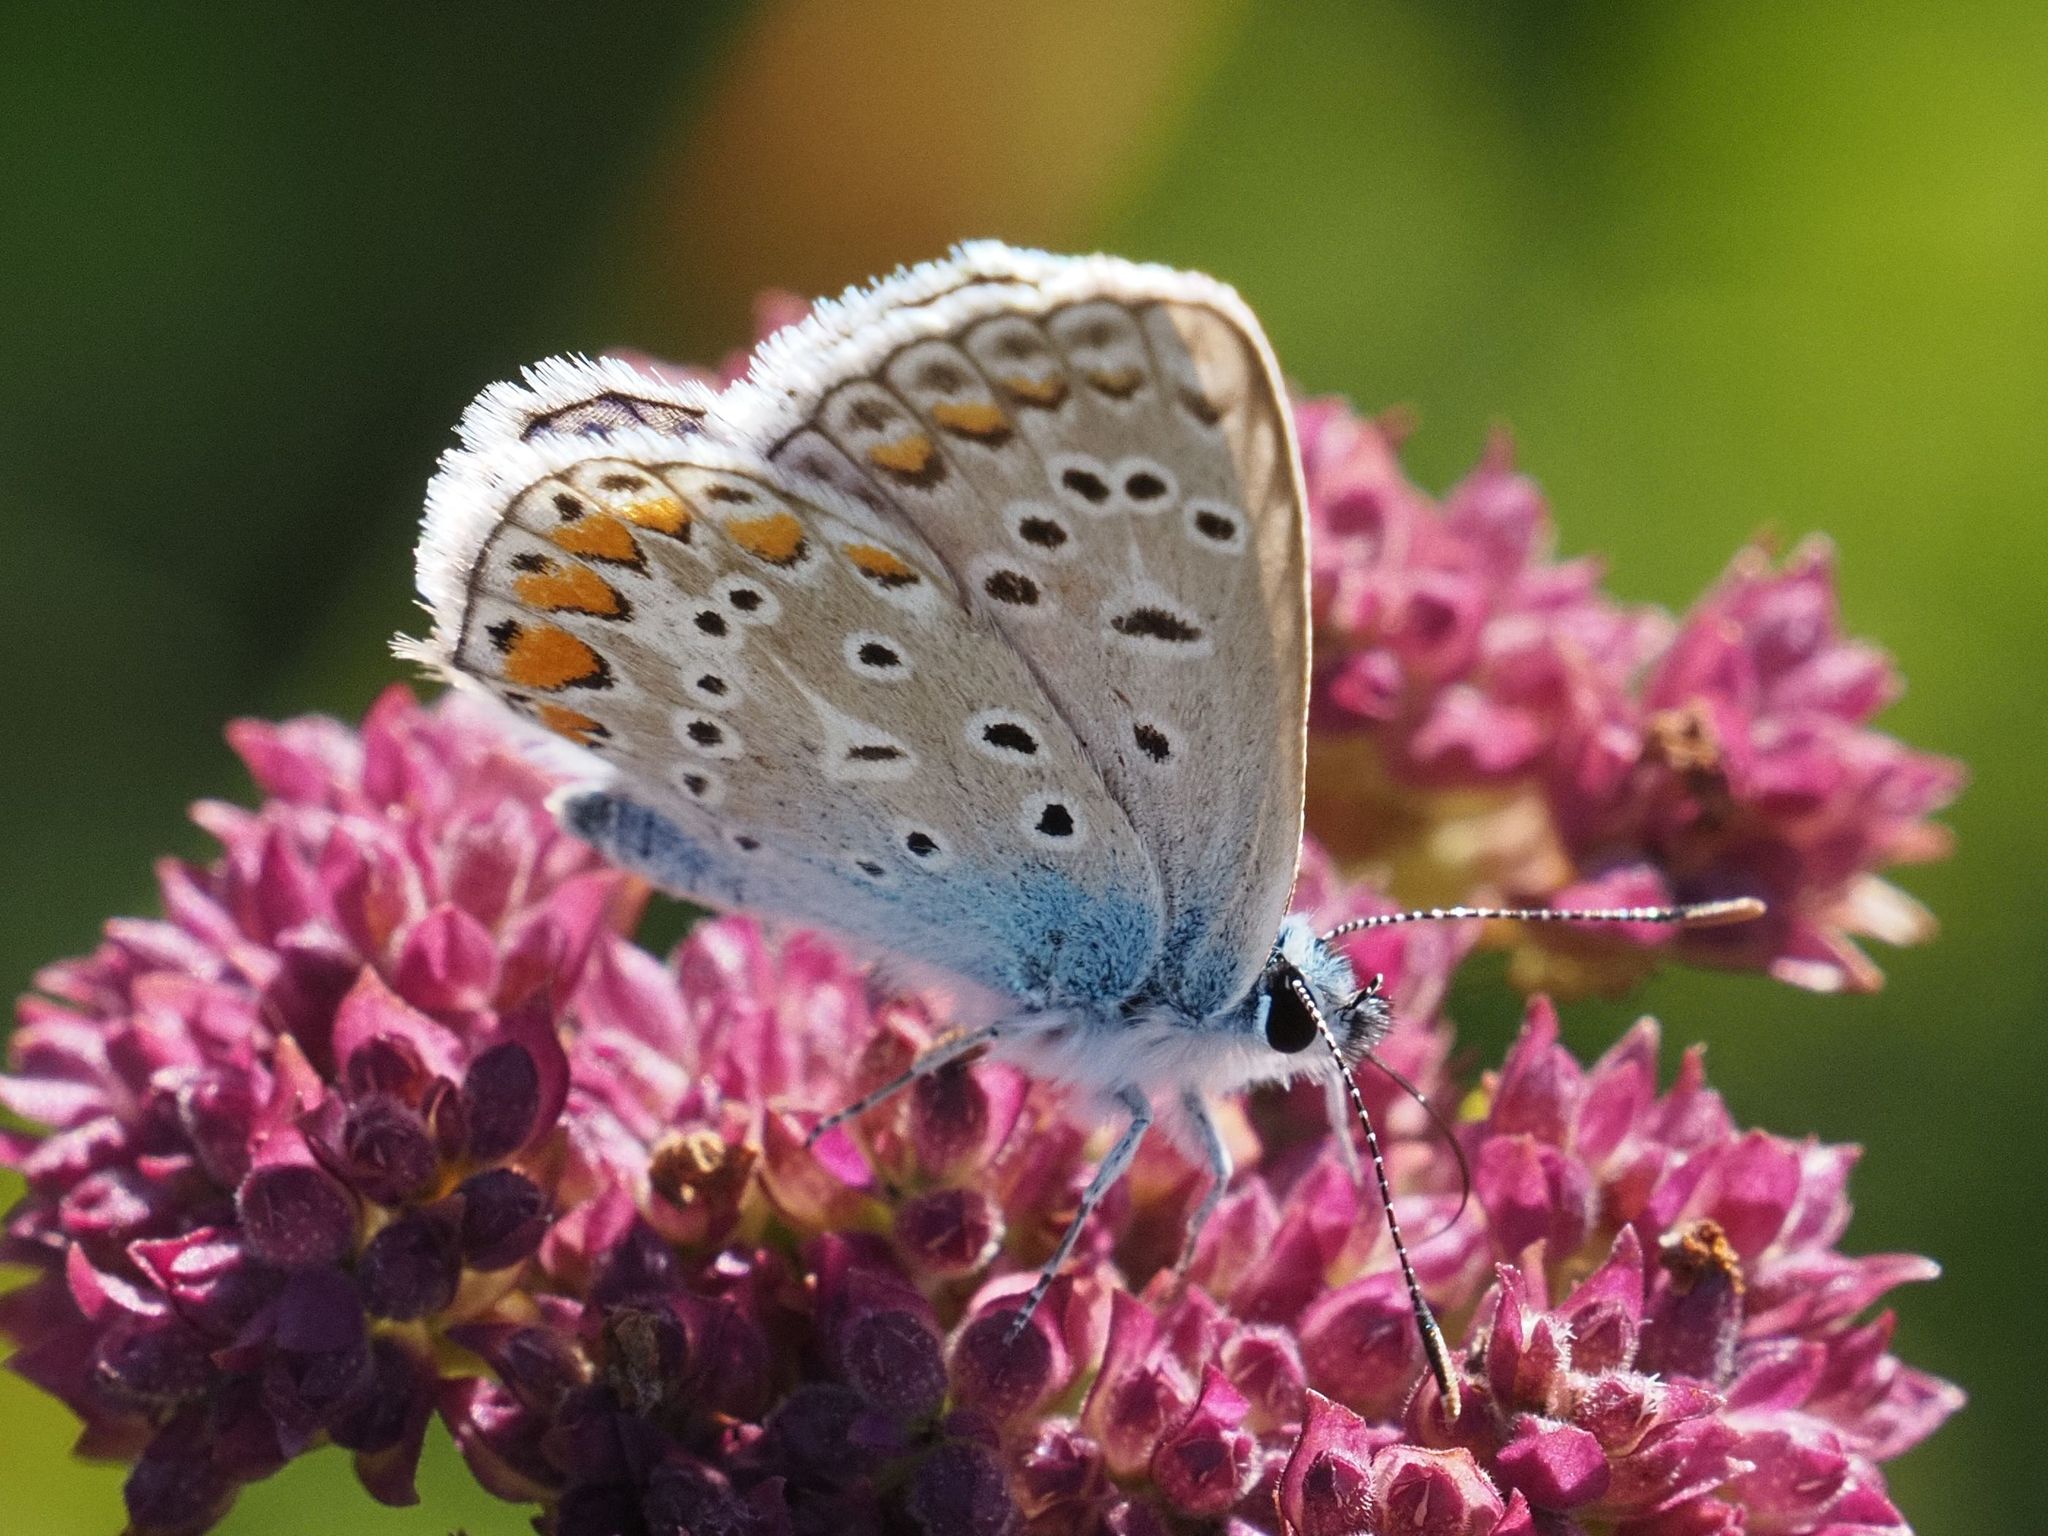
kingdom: Animalia
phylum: Arthropoda
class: Insecta
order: Lepidoptera
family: Lycaenidae
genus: Polyommatus
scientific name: Polyommatus icarus
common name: Common blue
